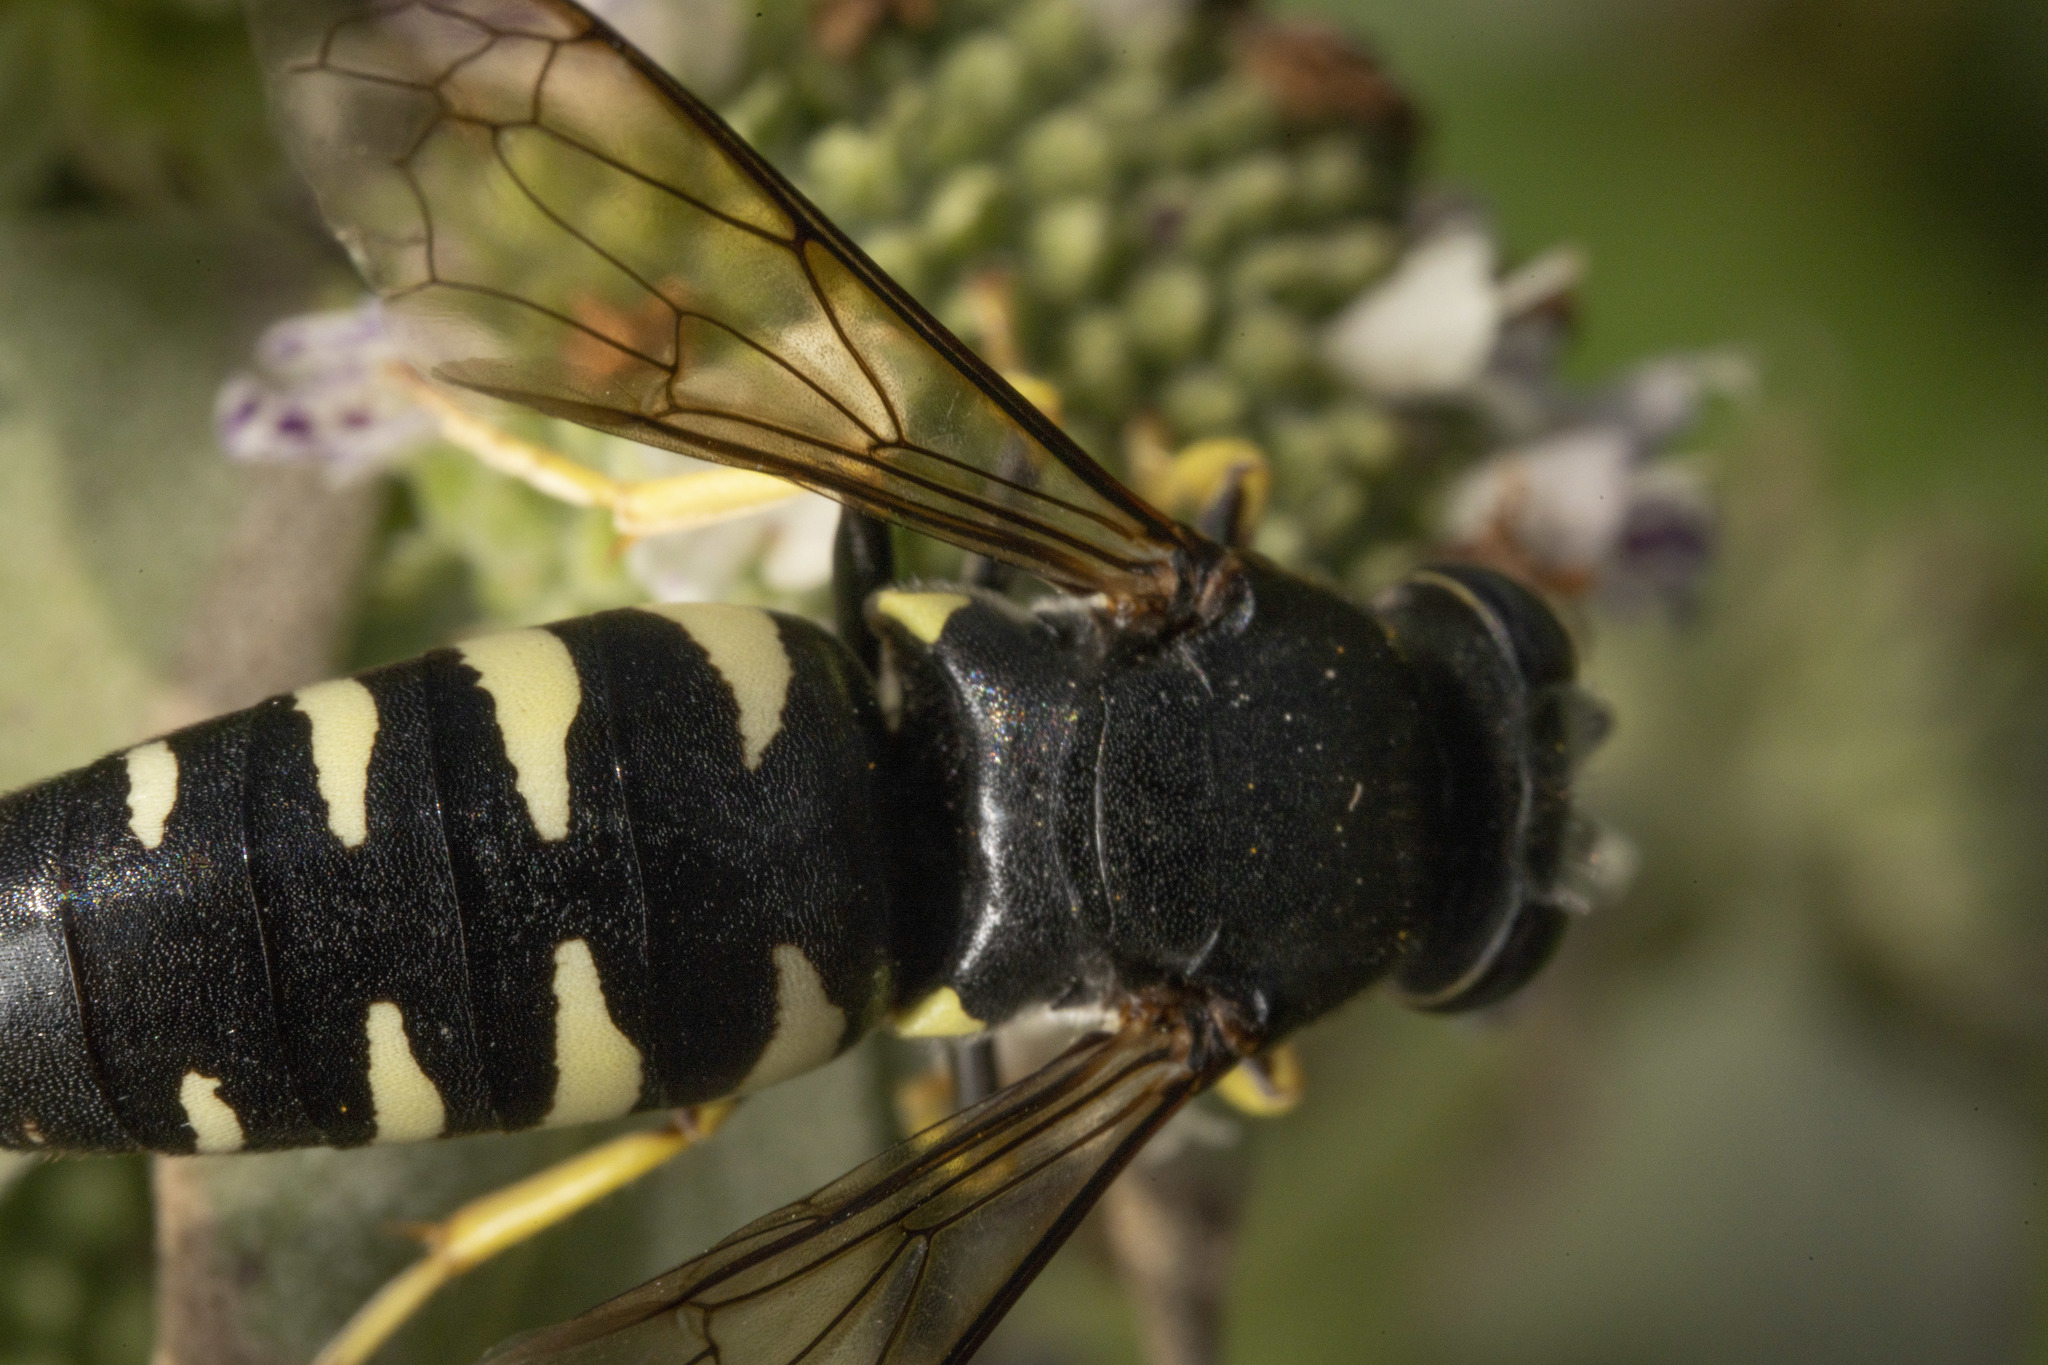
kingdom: Animalia
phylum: Arthropoda
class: Insecta
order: Hymenoptera
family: Crabronidae
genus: Bicyrtes
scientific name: Bicyrtes quadrifasciatus
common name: Four-banded stink bug hunter wasp
